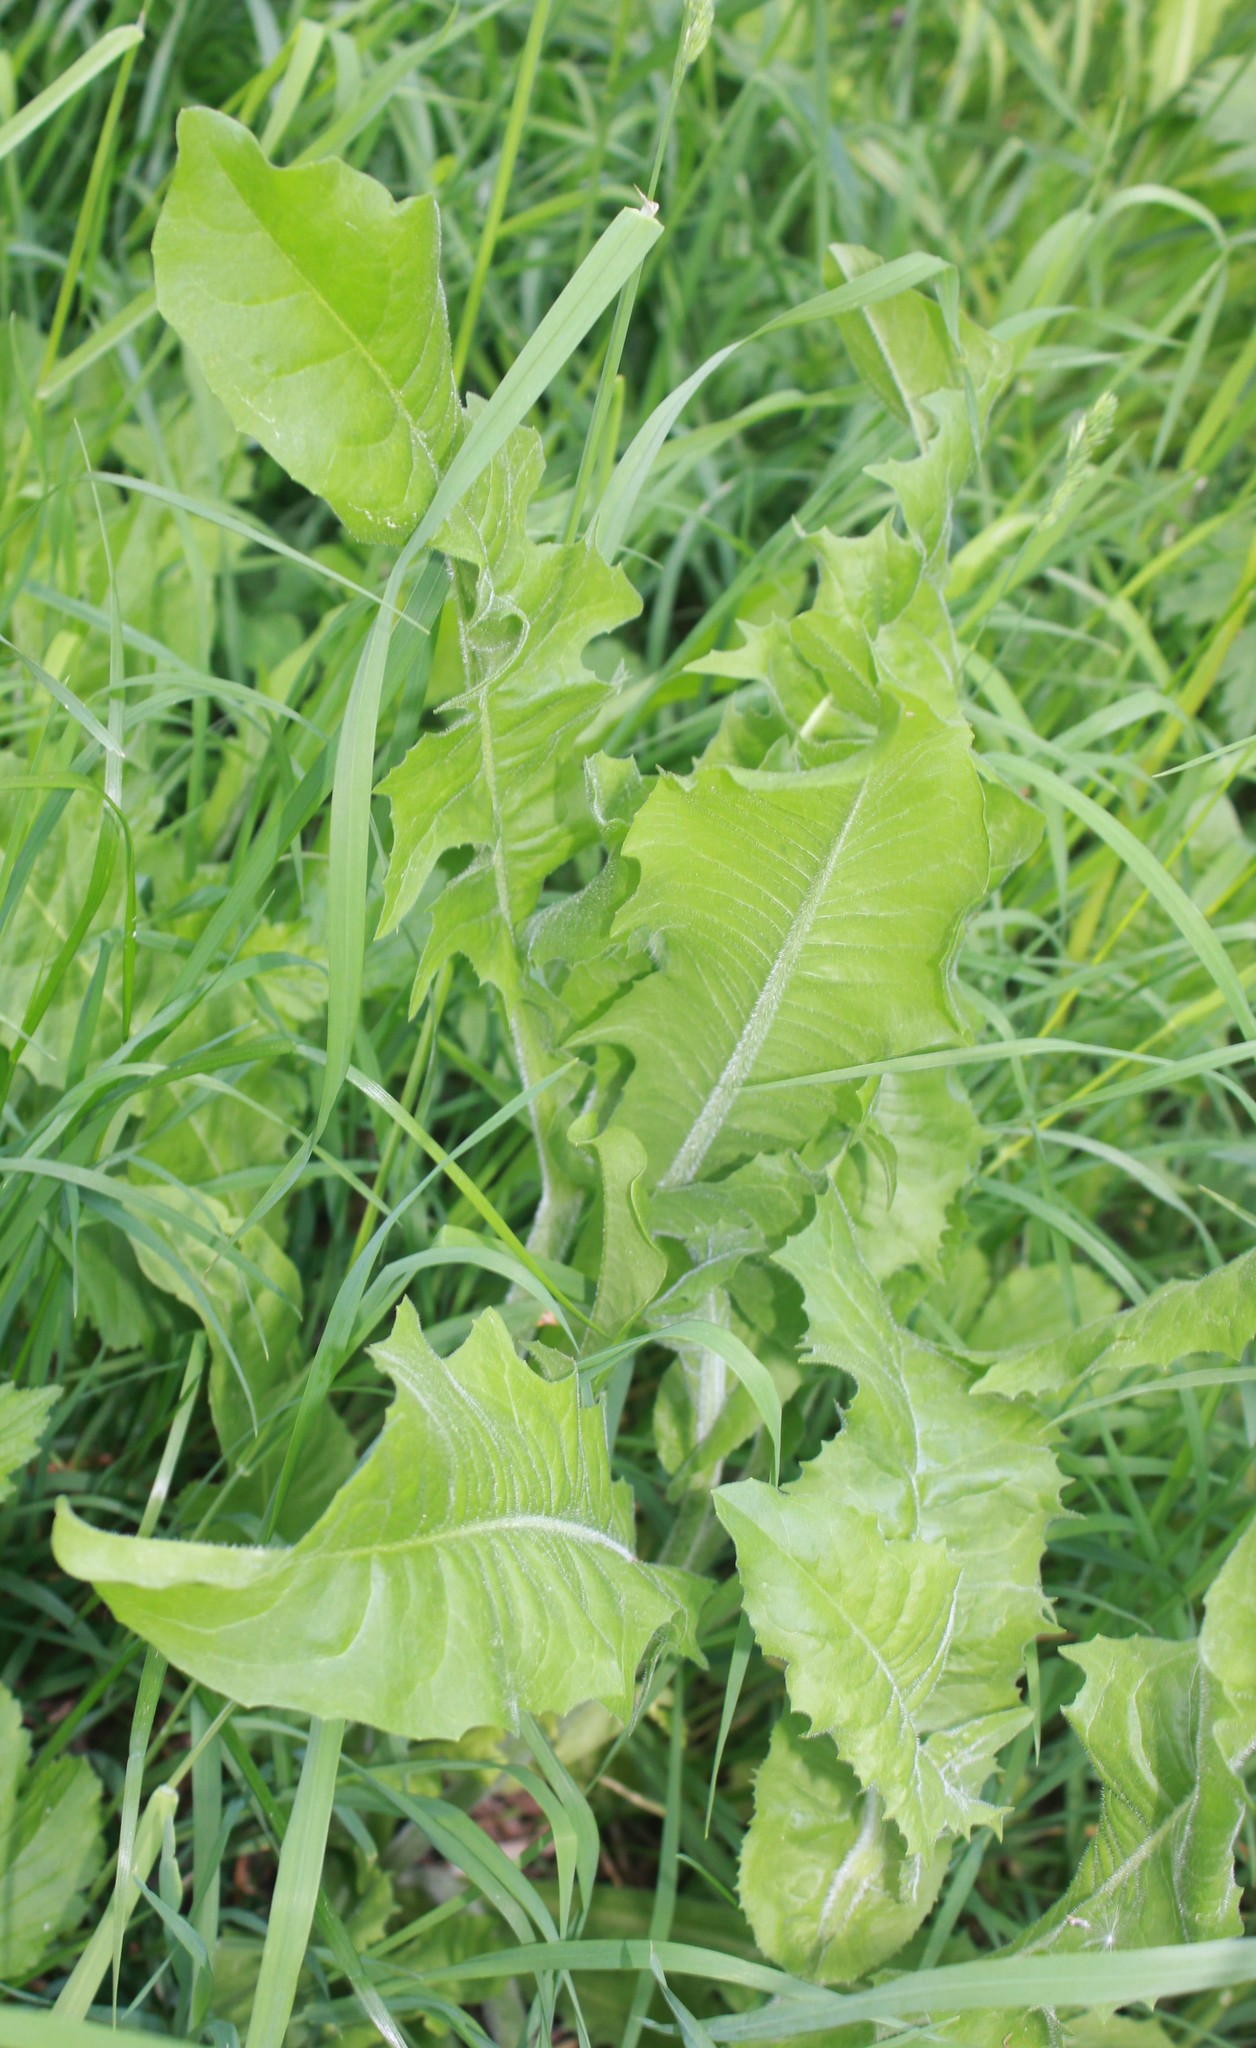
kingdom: Plantae
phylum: Tracheophyta
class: Magnoliopsida
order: Asterales
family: Asteraceae
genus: Cichorium
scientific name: Cichorium intybus
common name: Chicory
